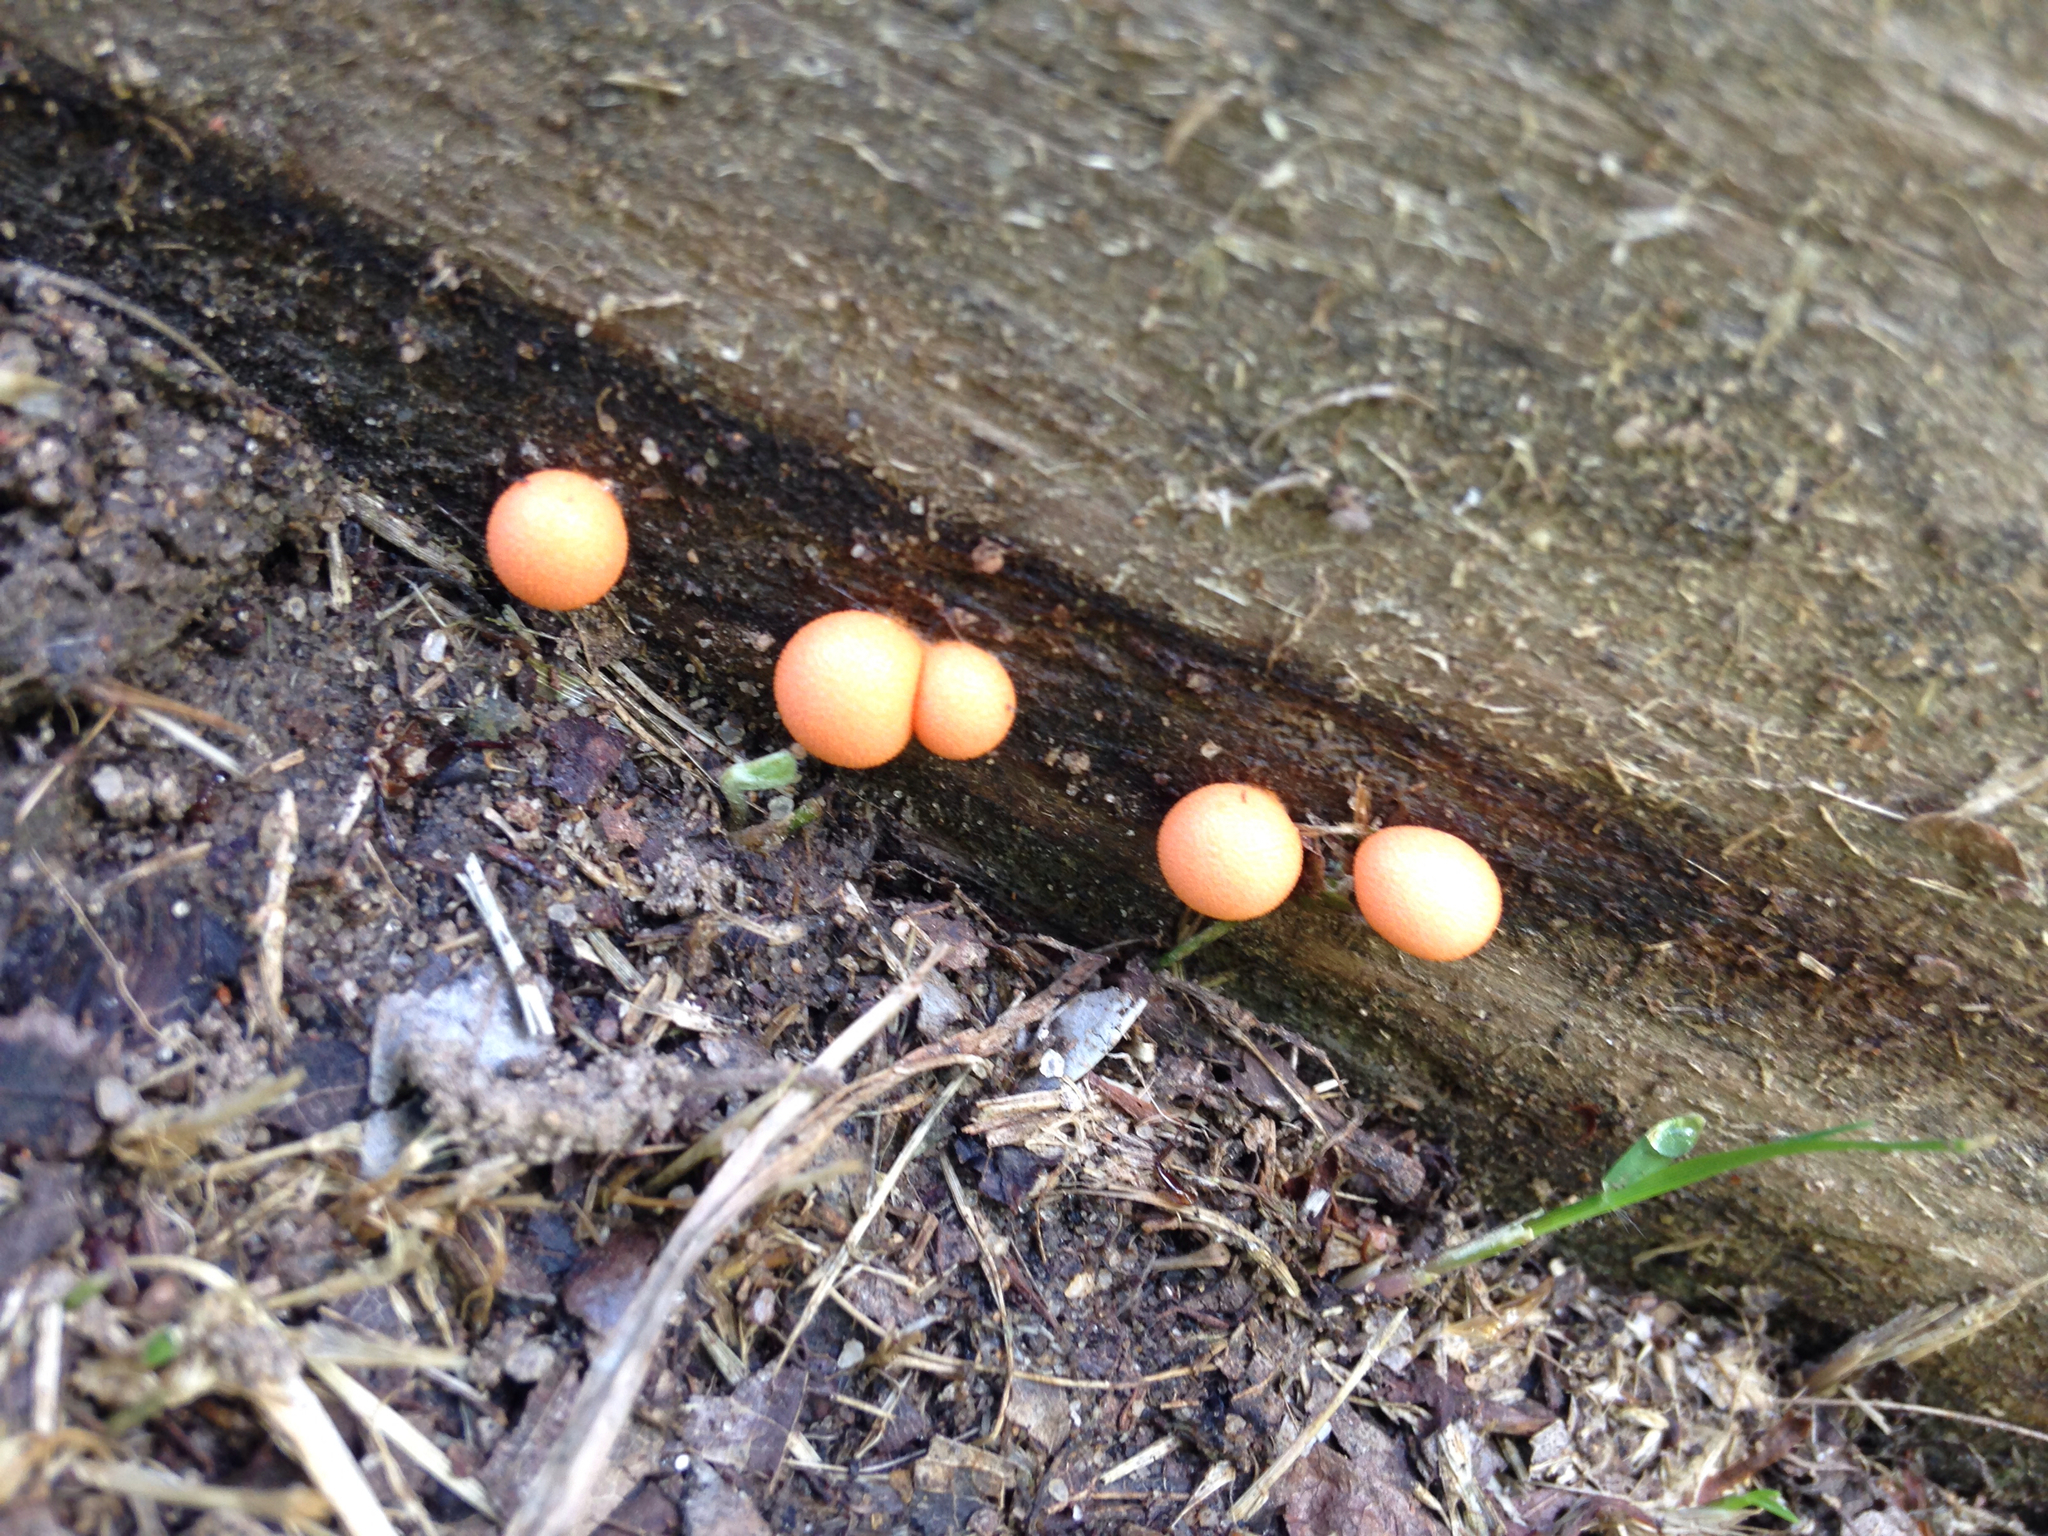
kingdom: Protozoa
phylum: Mycetozoa
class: Myxomycetes
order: Cribrariales
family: Tubiferaceae
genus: Lycogala
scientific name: Lycogala epidendrum
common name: Wolf's milk
